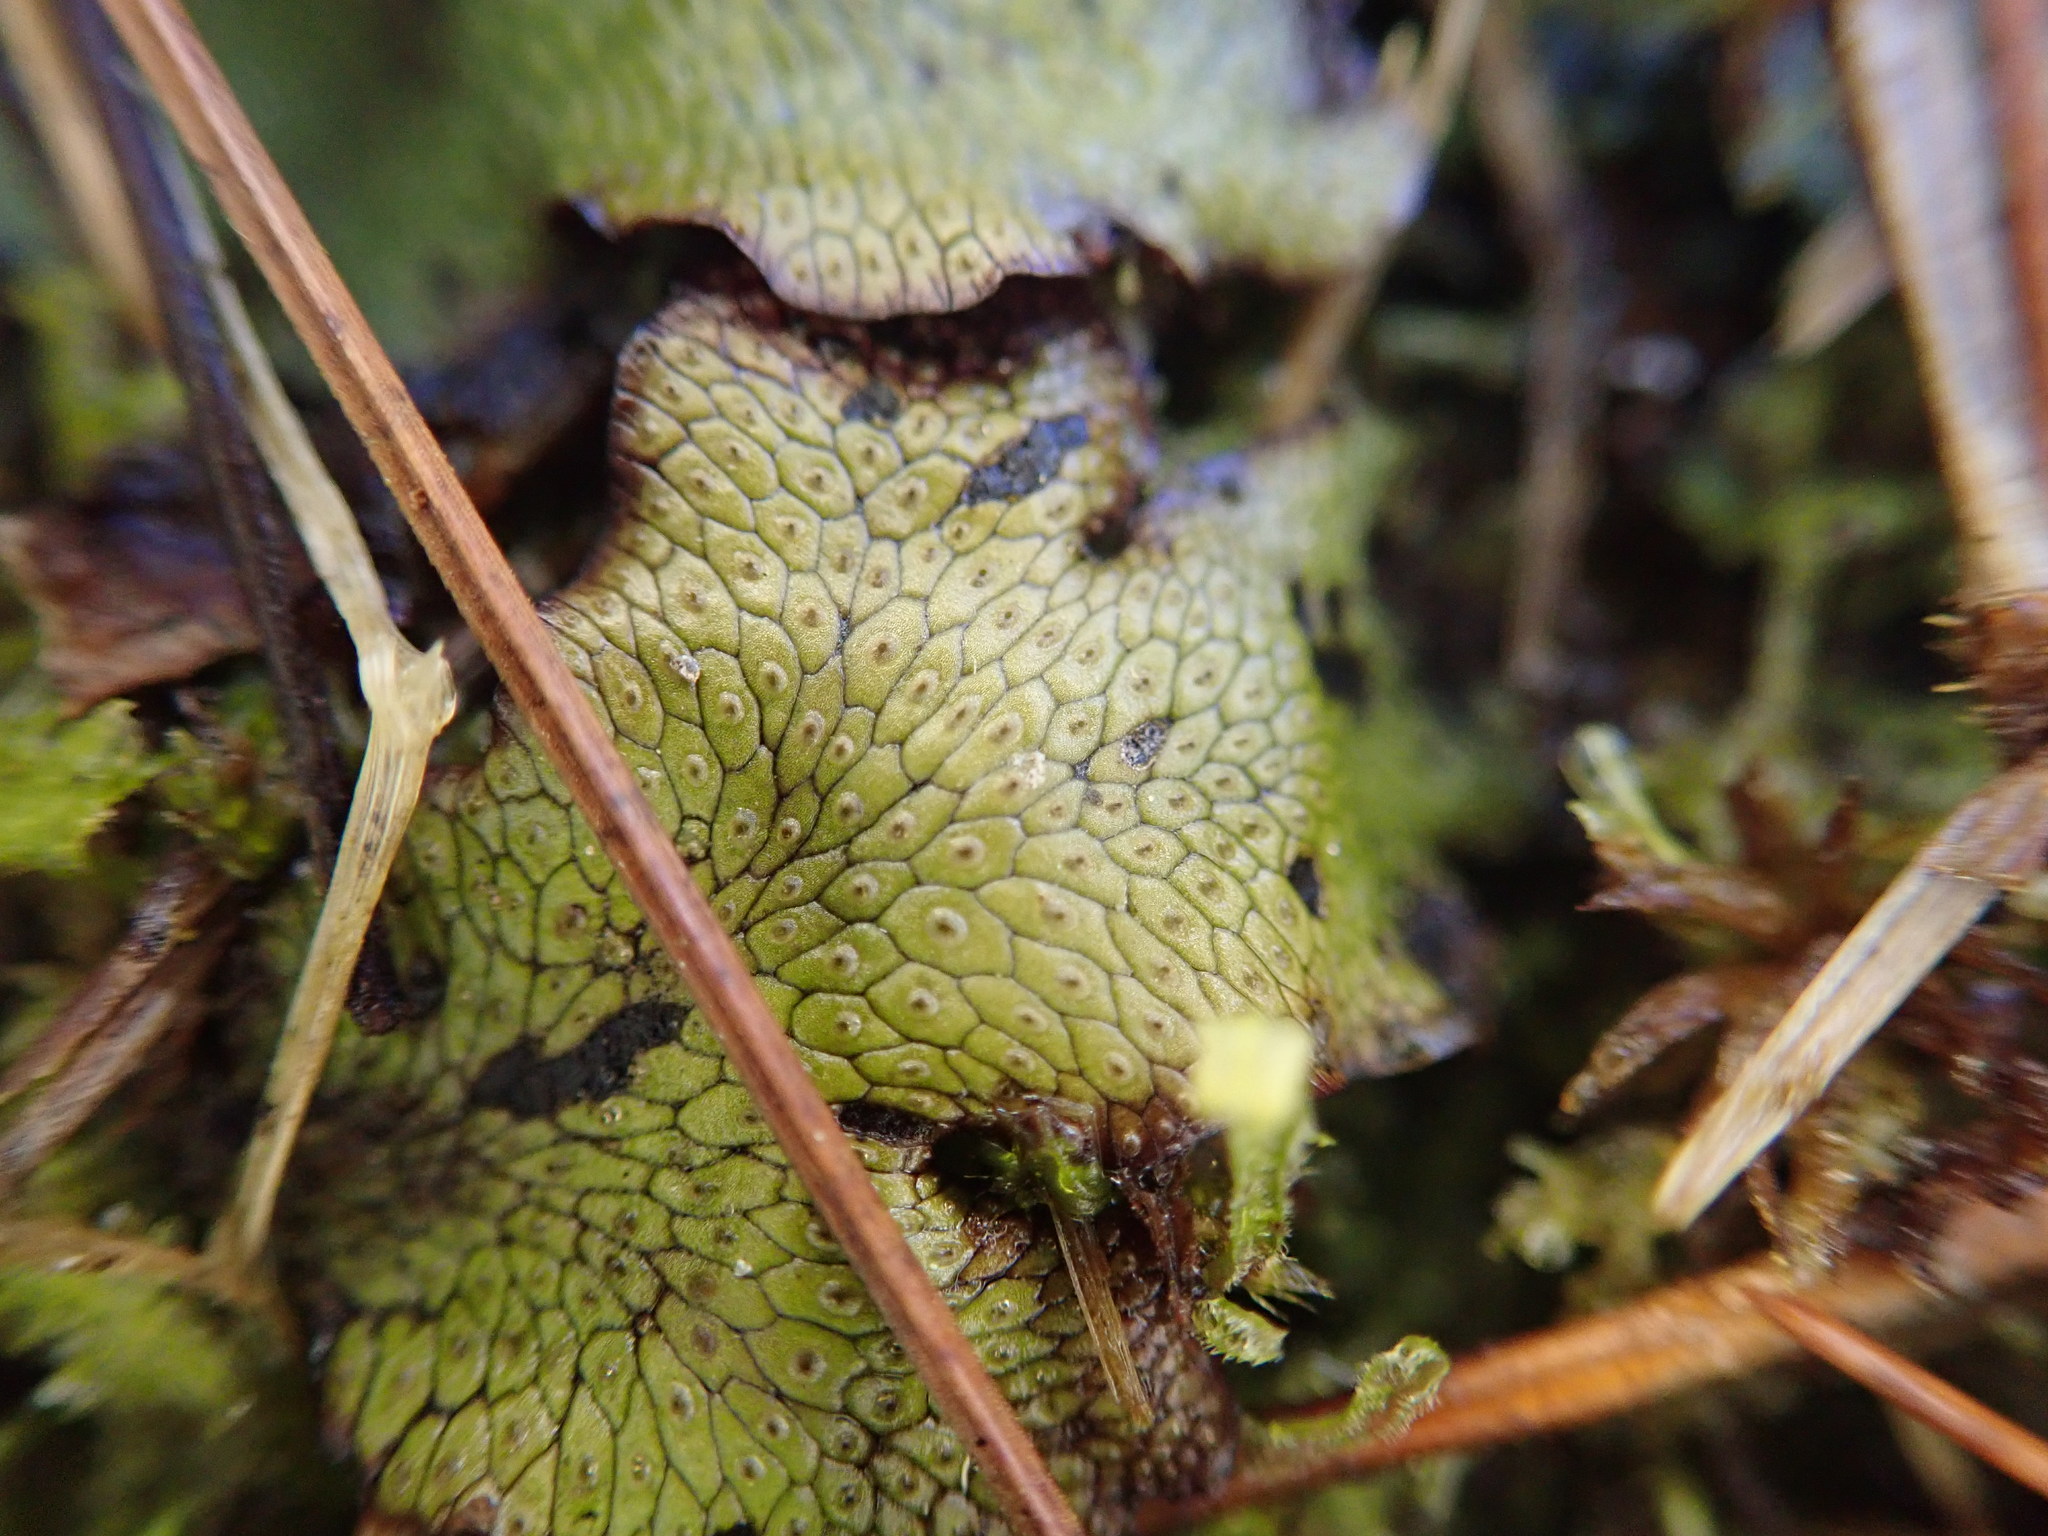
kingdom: Plantae
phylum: Marchantiophyta
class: Marchantiopsida
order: Marchantiales
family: Conocephalaceae
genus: Conocephalum
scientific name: Conocephalum conicum
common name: Great scented liverwort
